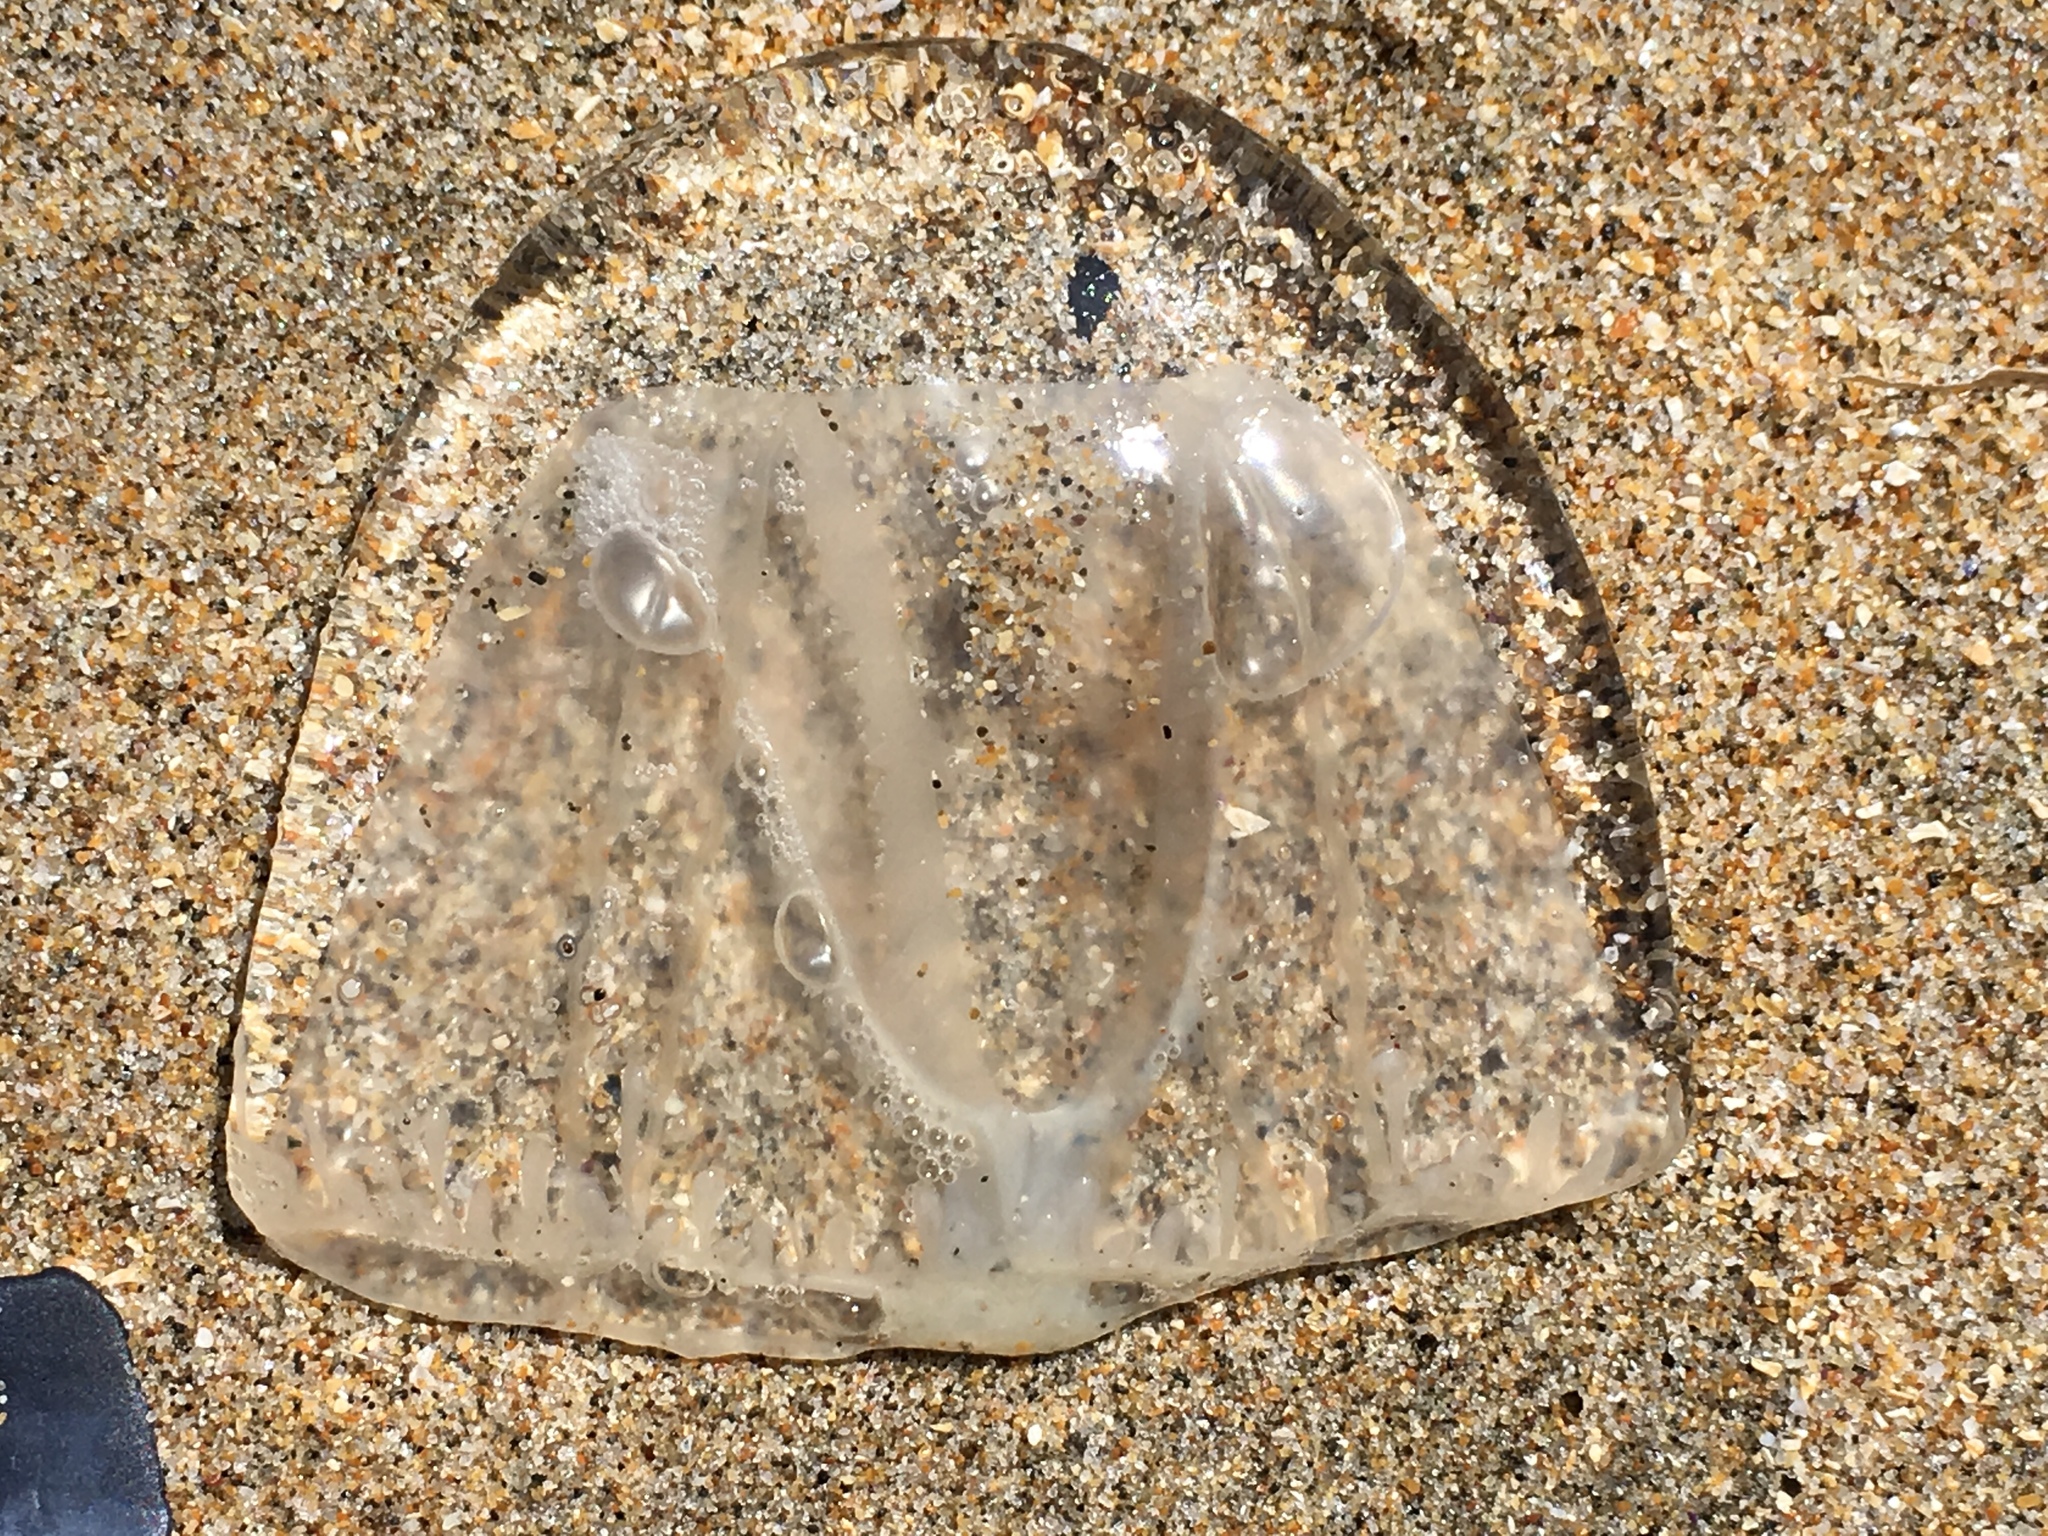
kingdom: Animalia
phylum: Cnidaria
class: Hydrozoa
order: Anthoathecata
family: Corynidae
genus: Scrippsia
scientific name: Scrippsia pacifica
